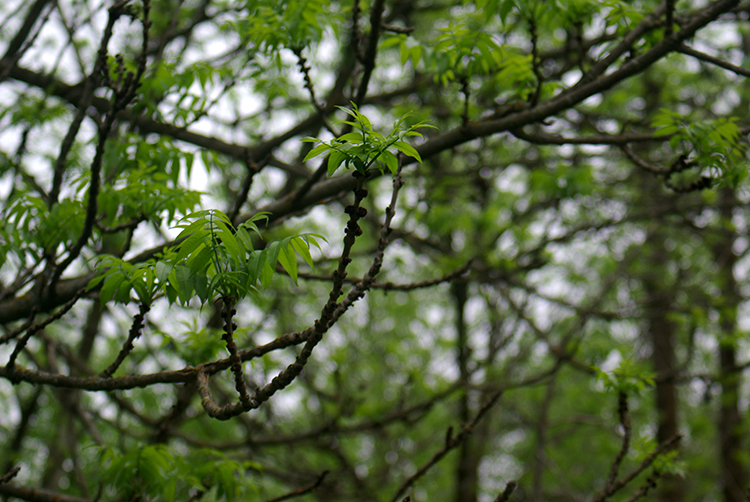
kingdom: Plantae
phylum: Tracheophyta
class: Magnoliopsida
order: Lamiales
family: Oleaceae
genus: Fraxinus
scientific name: Fraxinus nigra
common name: Black ash
